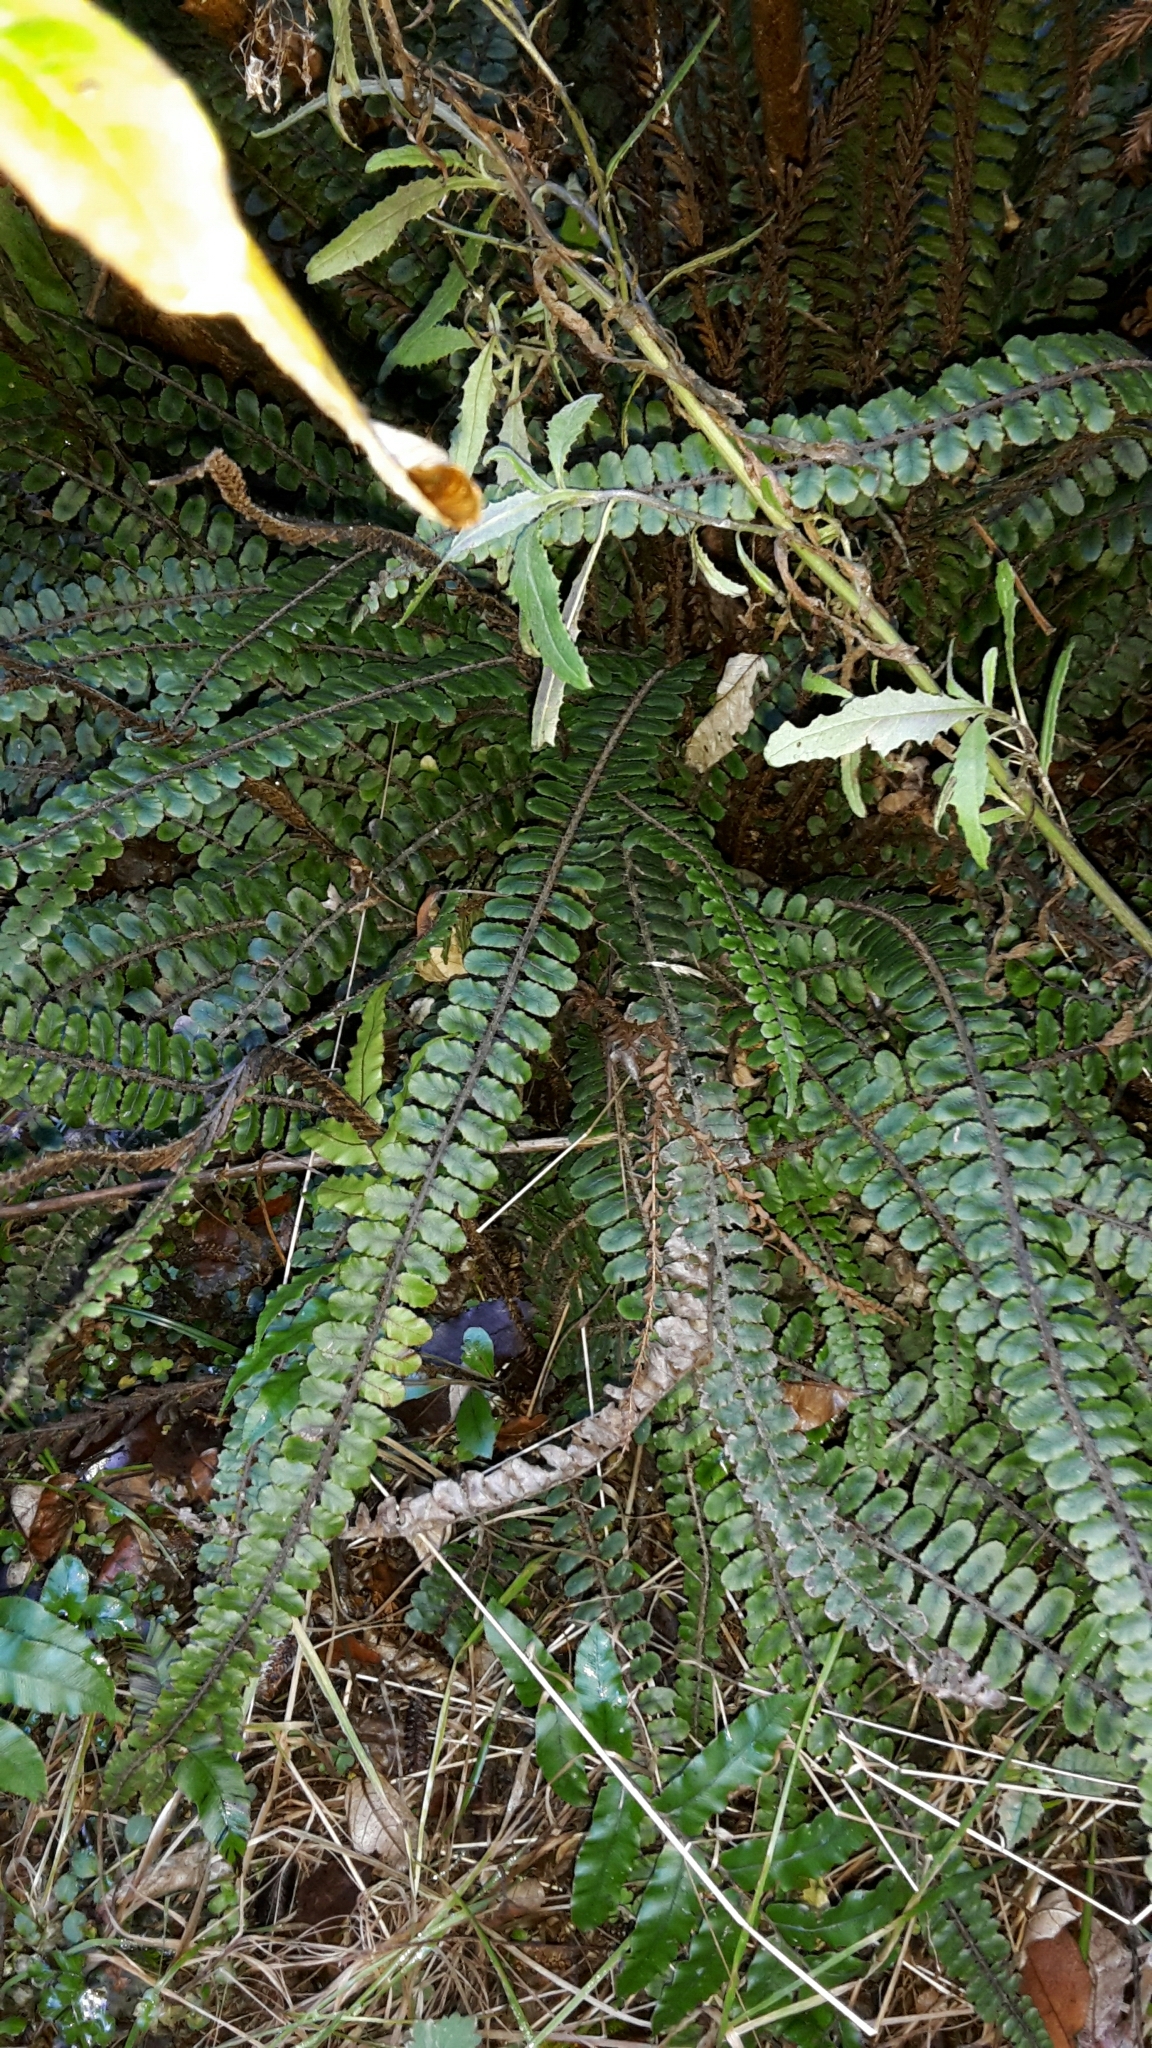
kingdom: Plantae
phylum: Tracheophyta
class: Polypodiopsida
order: Polypodiales
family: Blechnaceae
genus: Cranfillia
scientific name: Cranfillia fluviatilis
